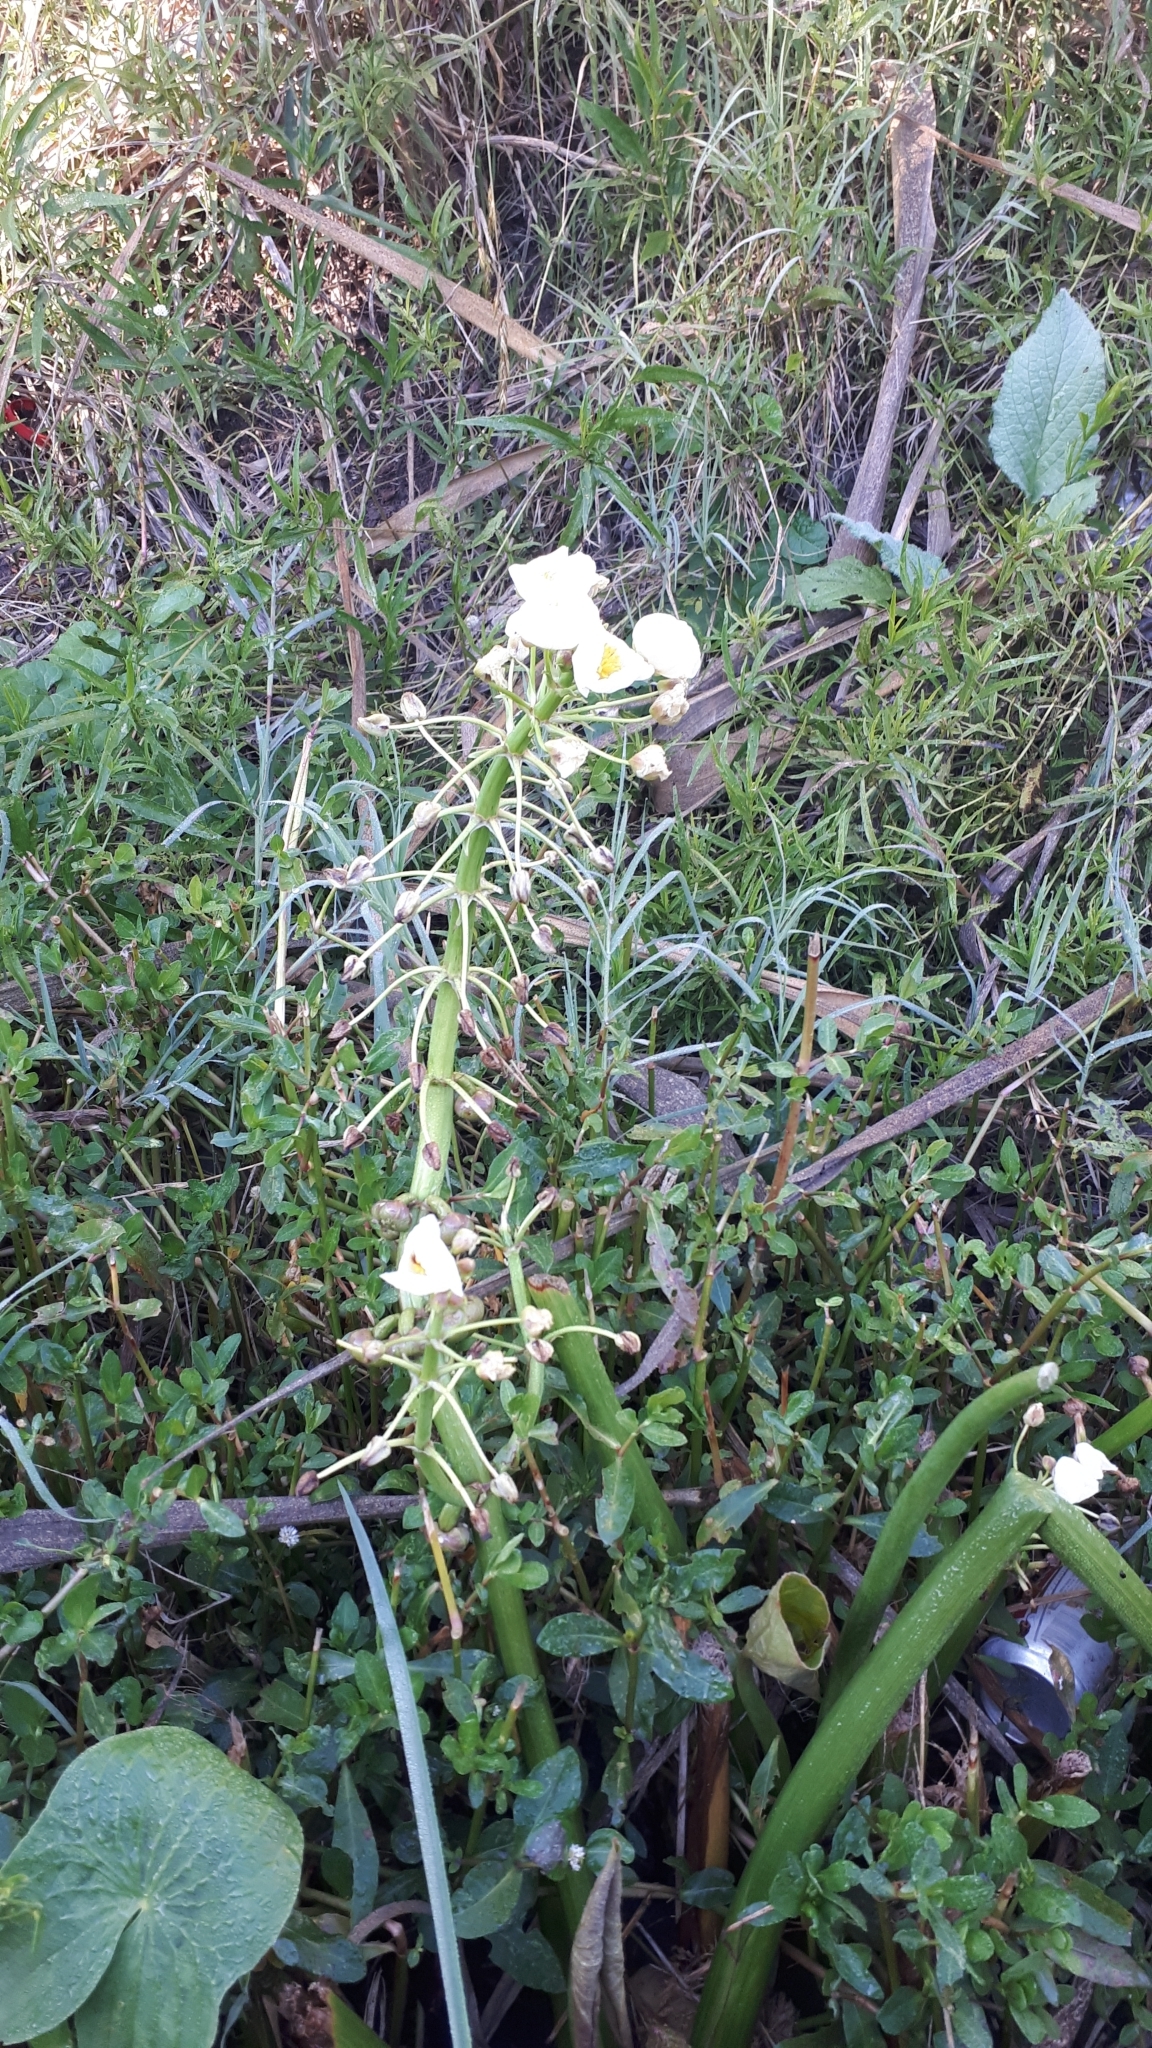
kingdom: Plantae
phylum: Tracheophyta
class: Liliopsida
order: Alismatales
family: Alismataceae
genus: Sagittaria
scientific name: Sagittaria montevidensis
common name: Giant arrowhead
